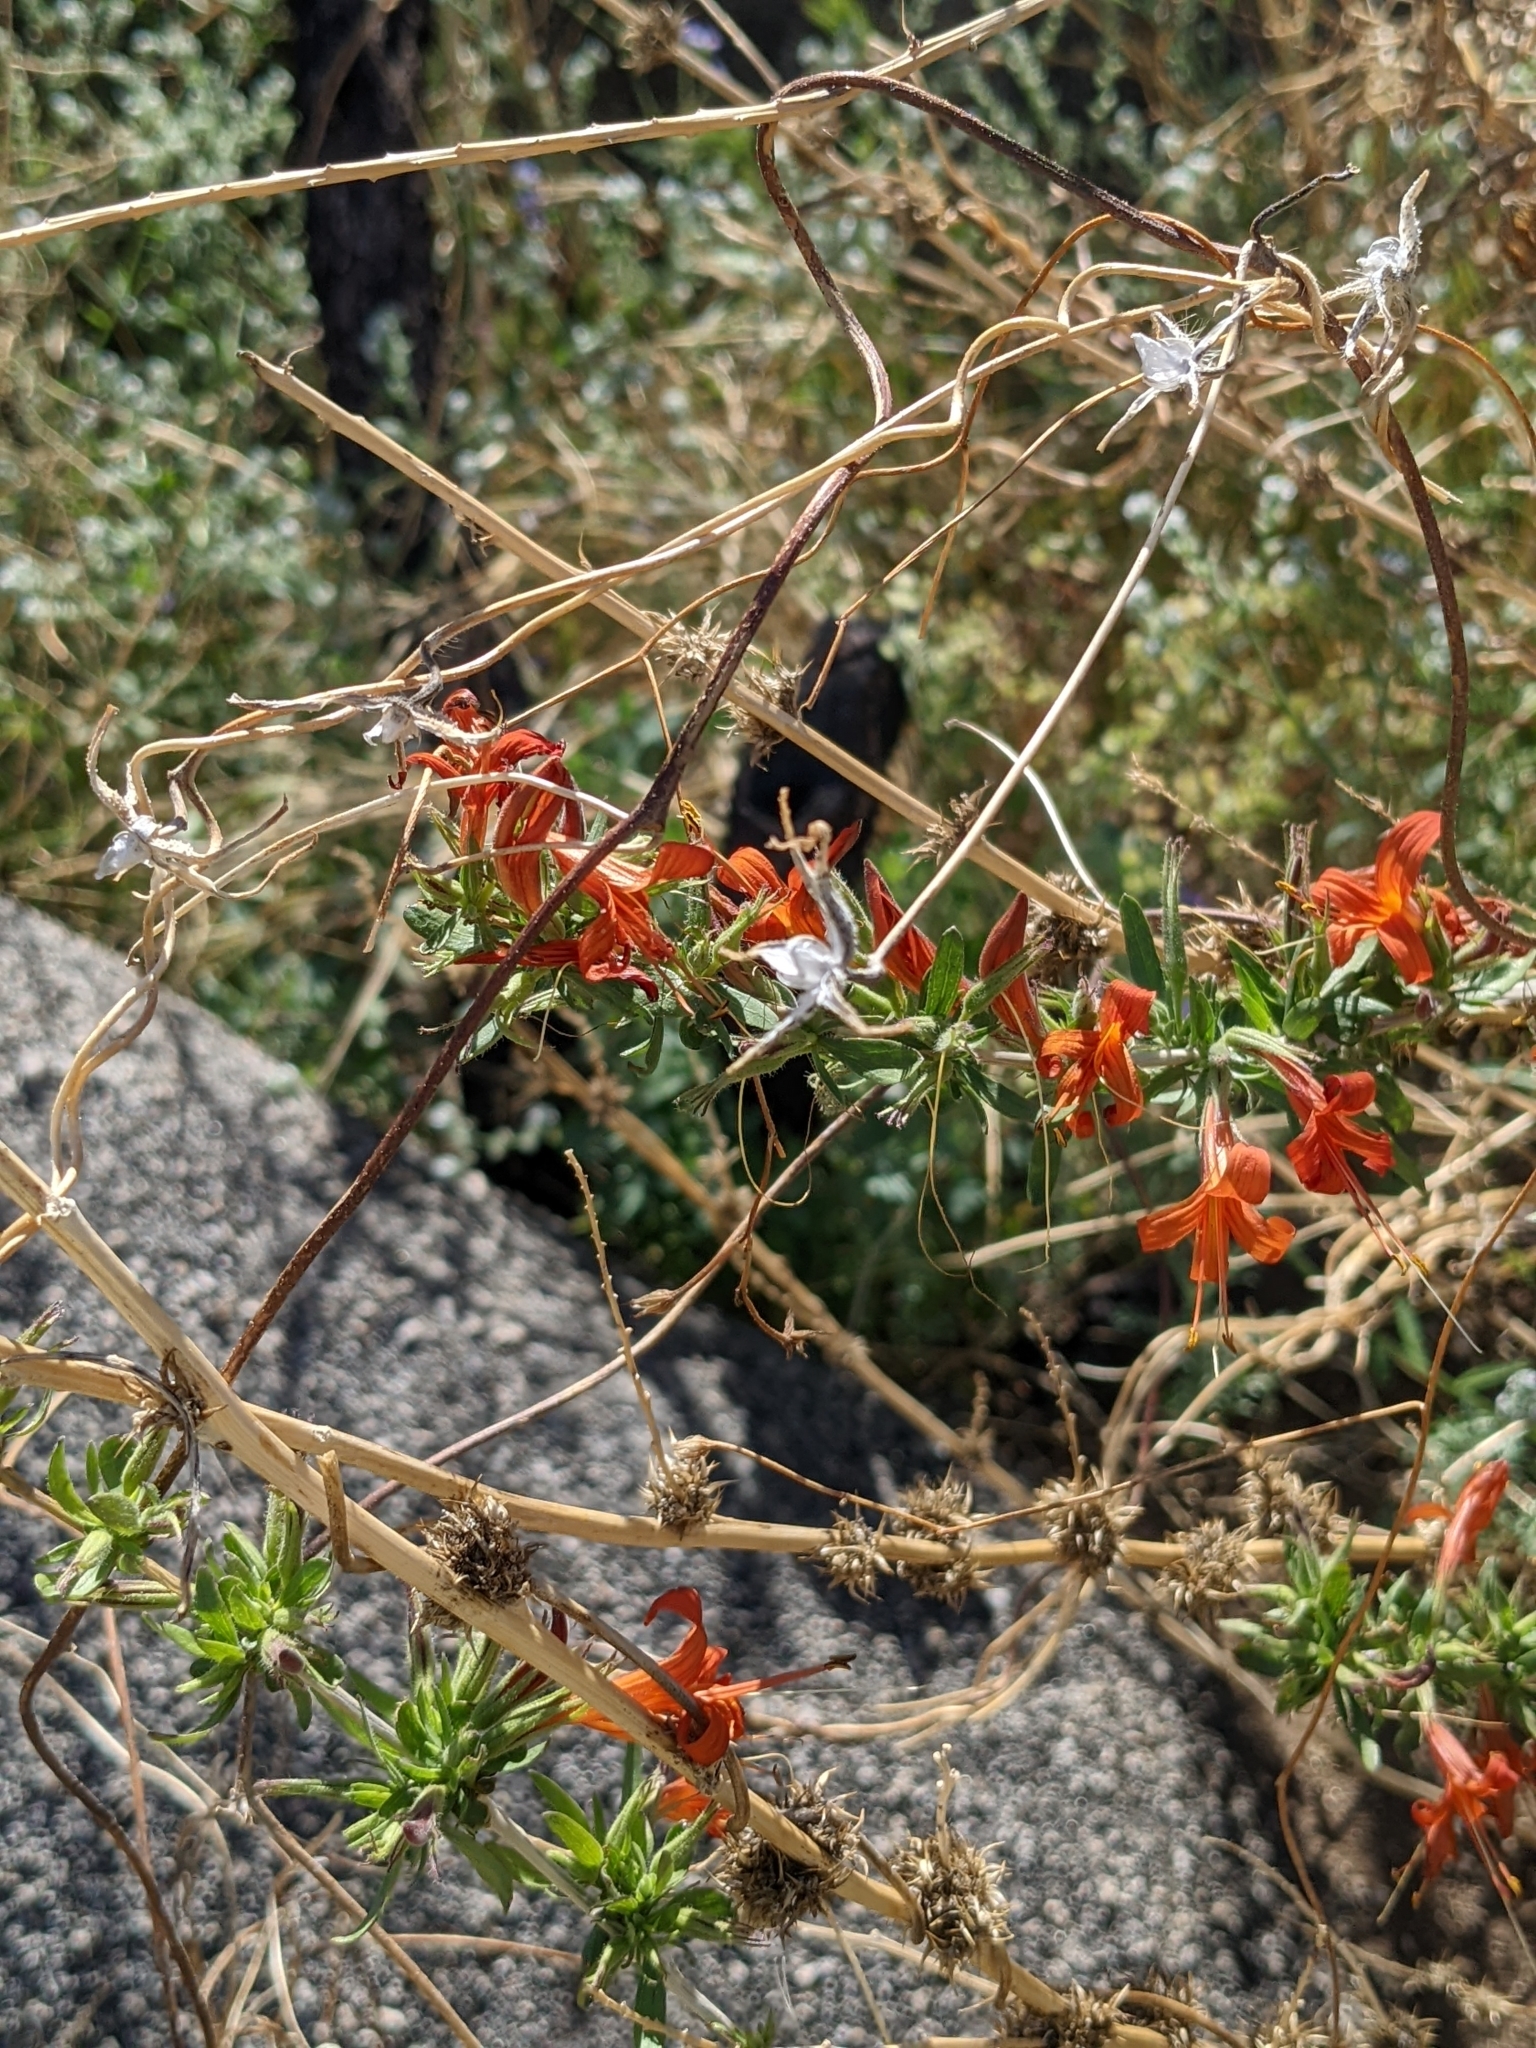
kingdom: Plantae
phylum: Tracheophyta
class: Magnoliopsida
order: Lamiales
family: Acanthaceae
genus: Anisacanthus
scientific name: Anisacanthus thurberi
